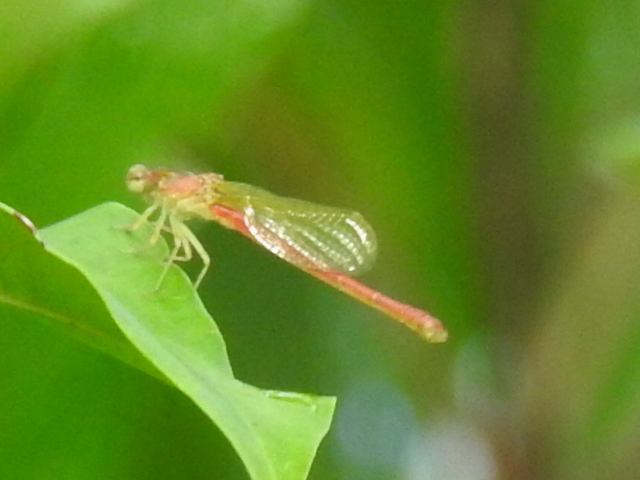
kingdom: Animalia
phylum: Arthropoda
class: Insecta
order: Odonata
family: Coenagrionidae
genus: Telebasis
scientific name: Telebasis salva
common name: Desert firetail
